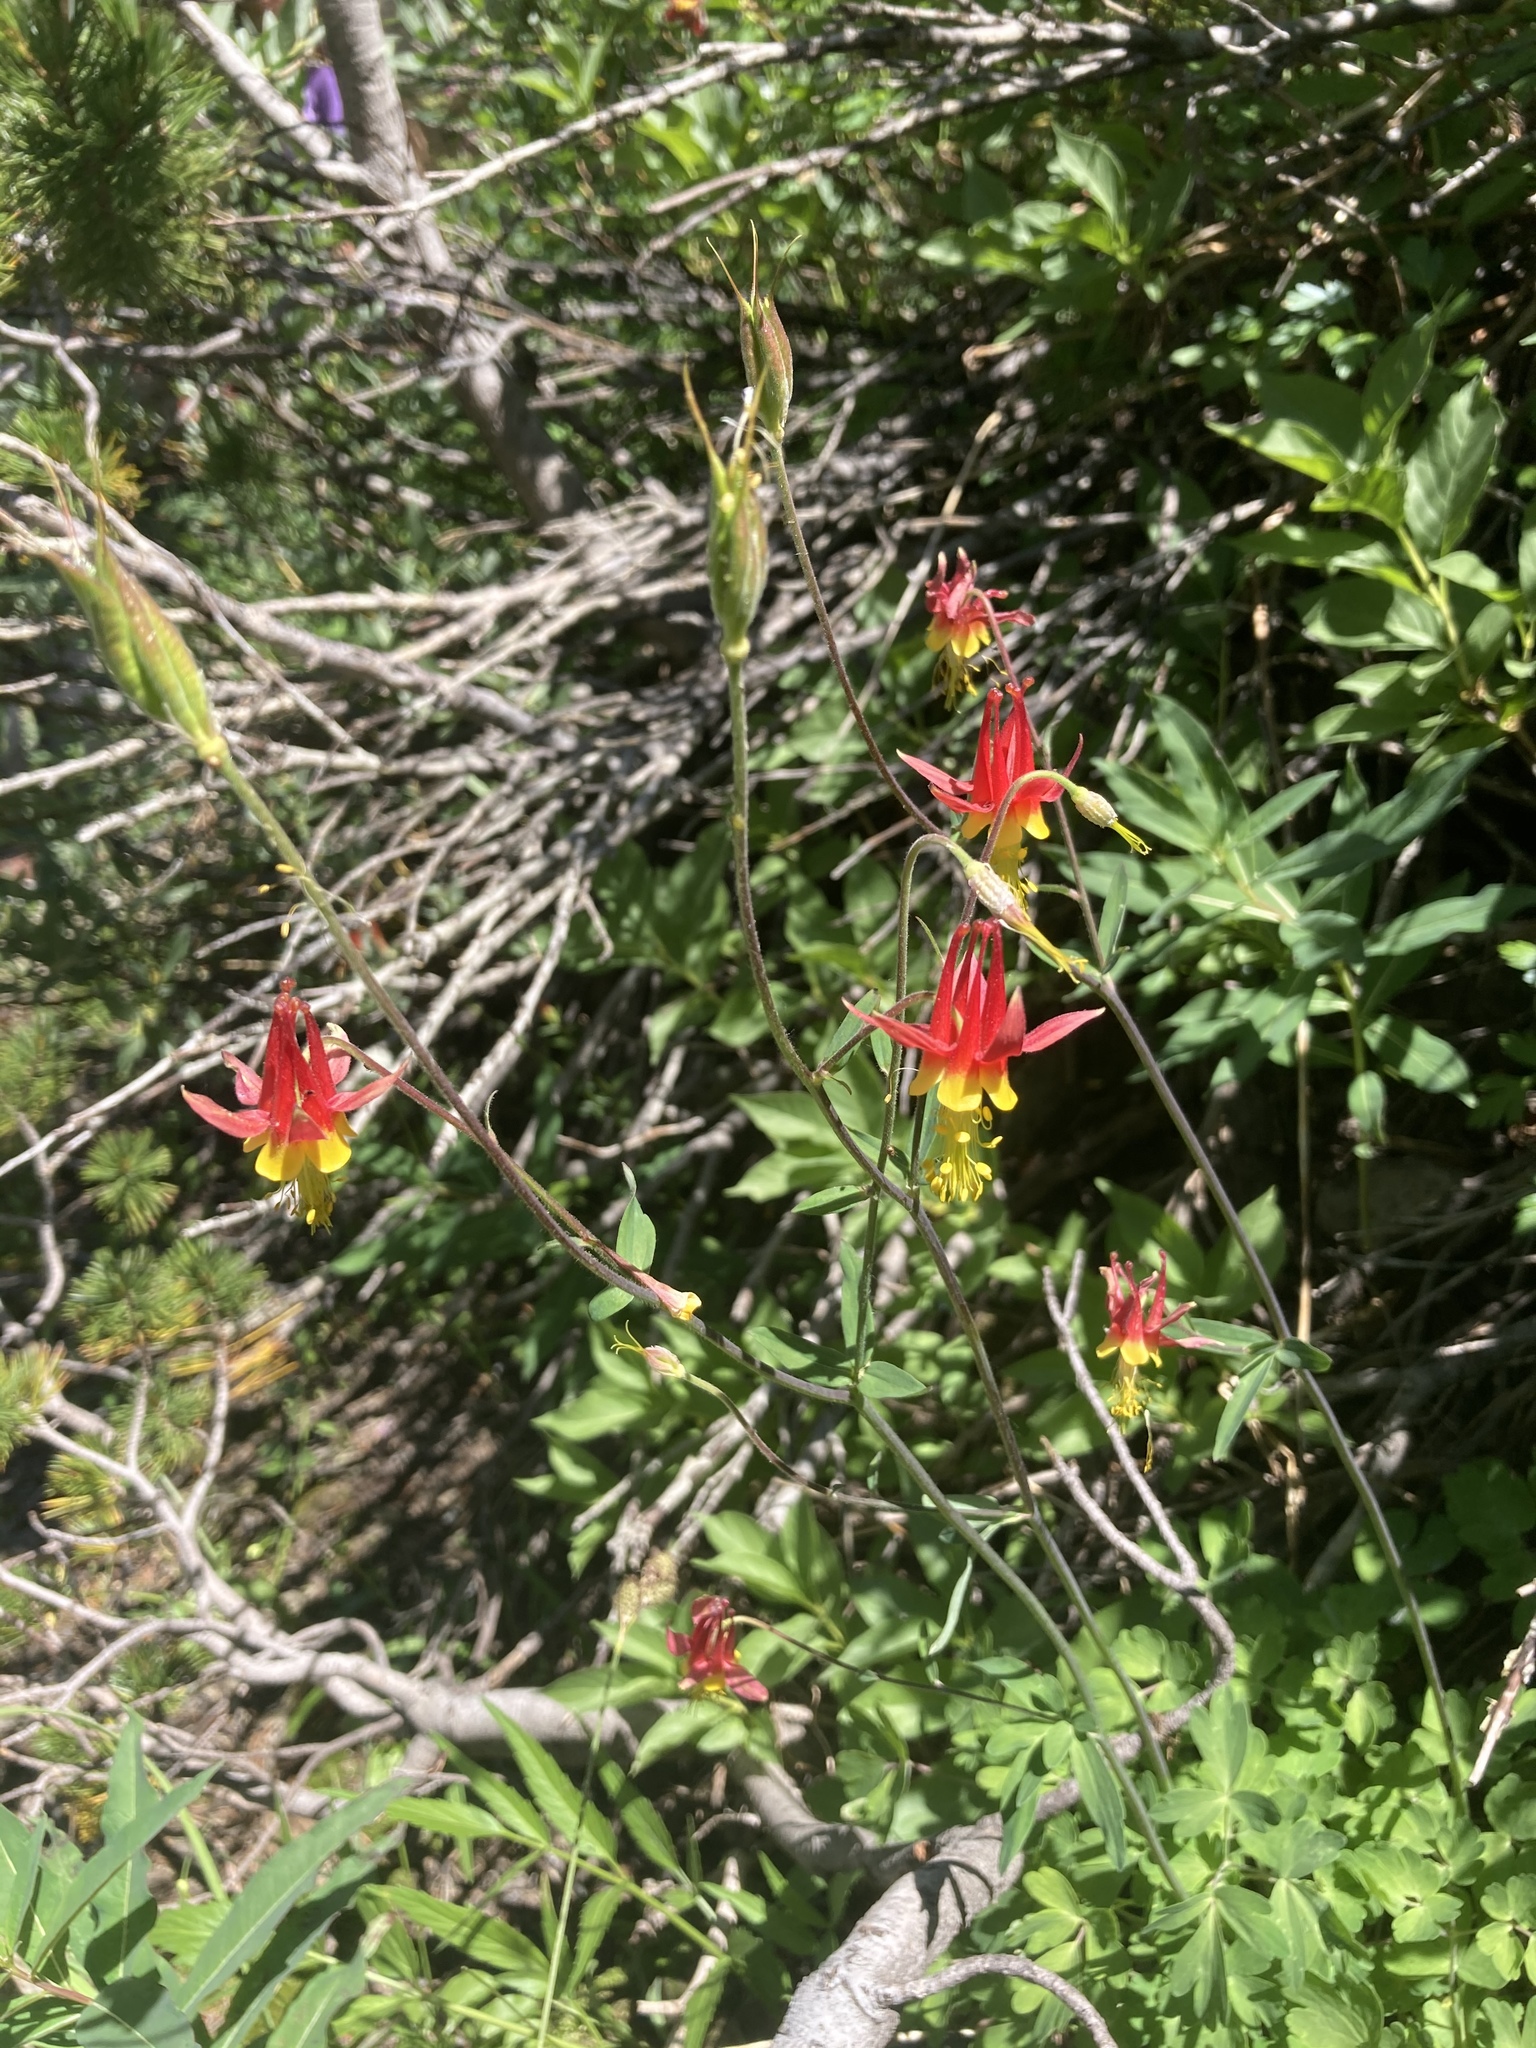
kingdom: Plantae
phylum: Tracheophyta
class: Magnoliopsida
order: Ranunculales
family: Ranunculaceae
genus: Aquilegia
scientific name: Aquilegia formosa
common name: Sitka columbine
